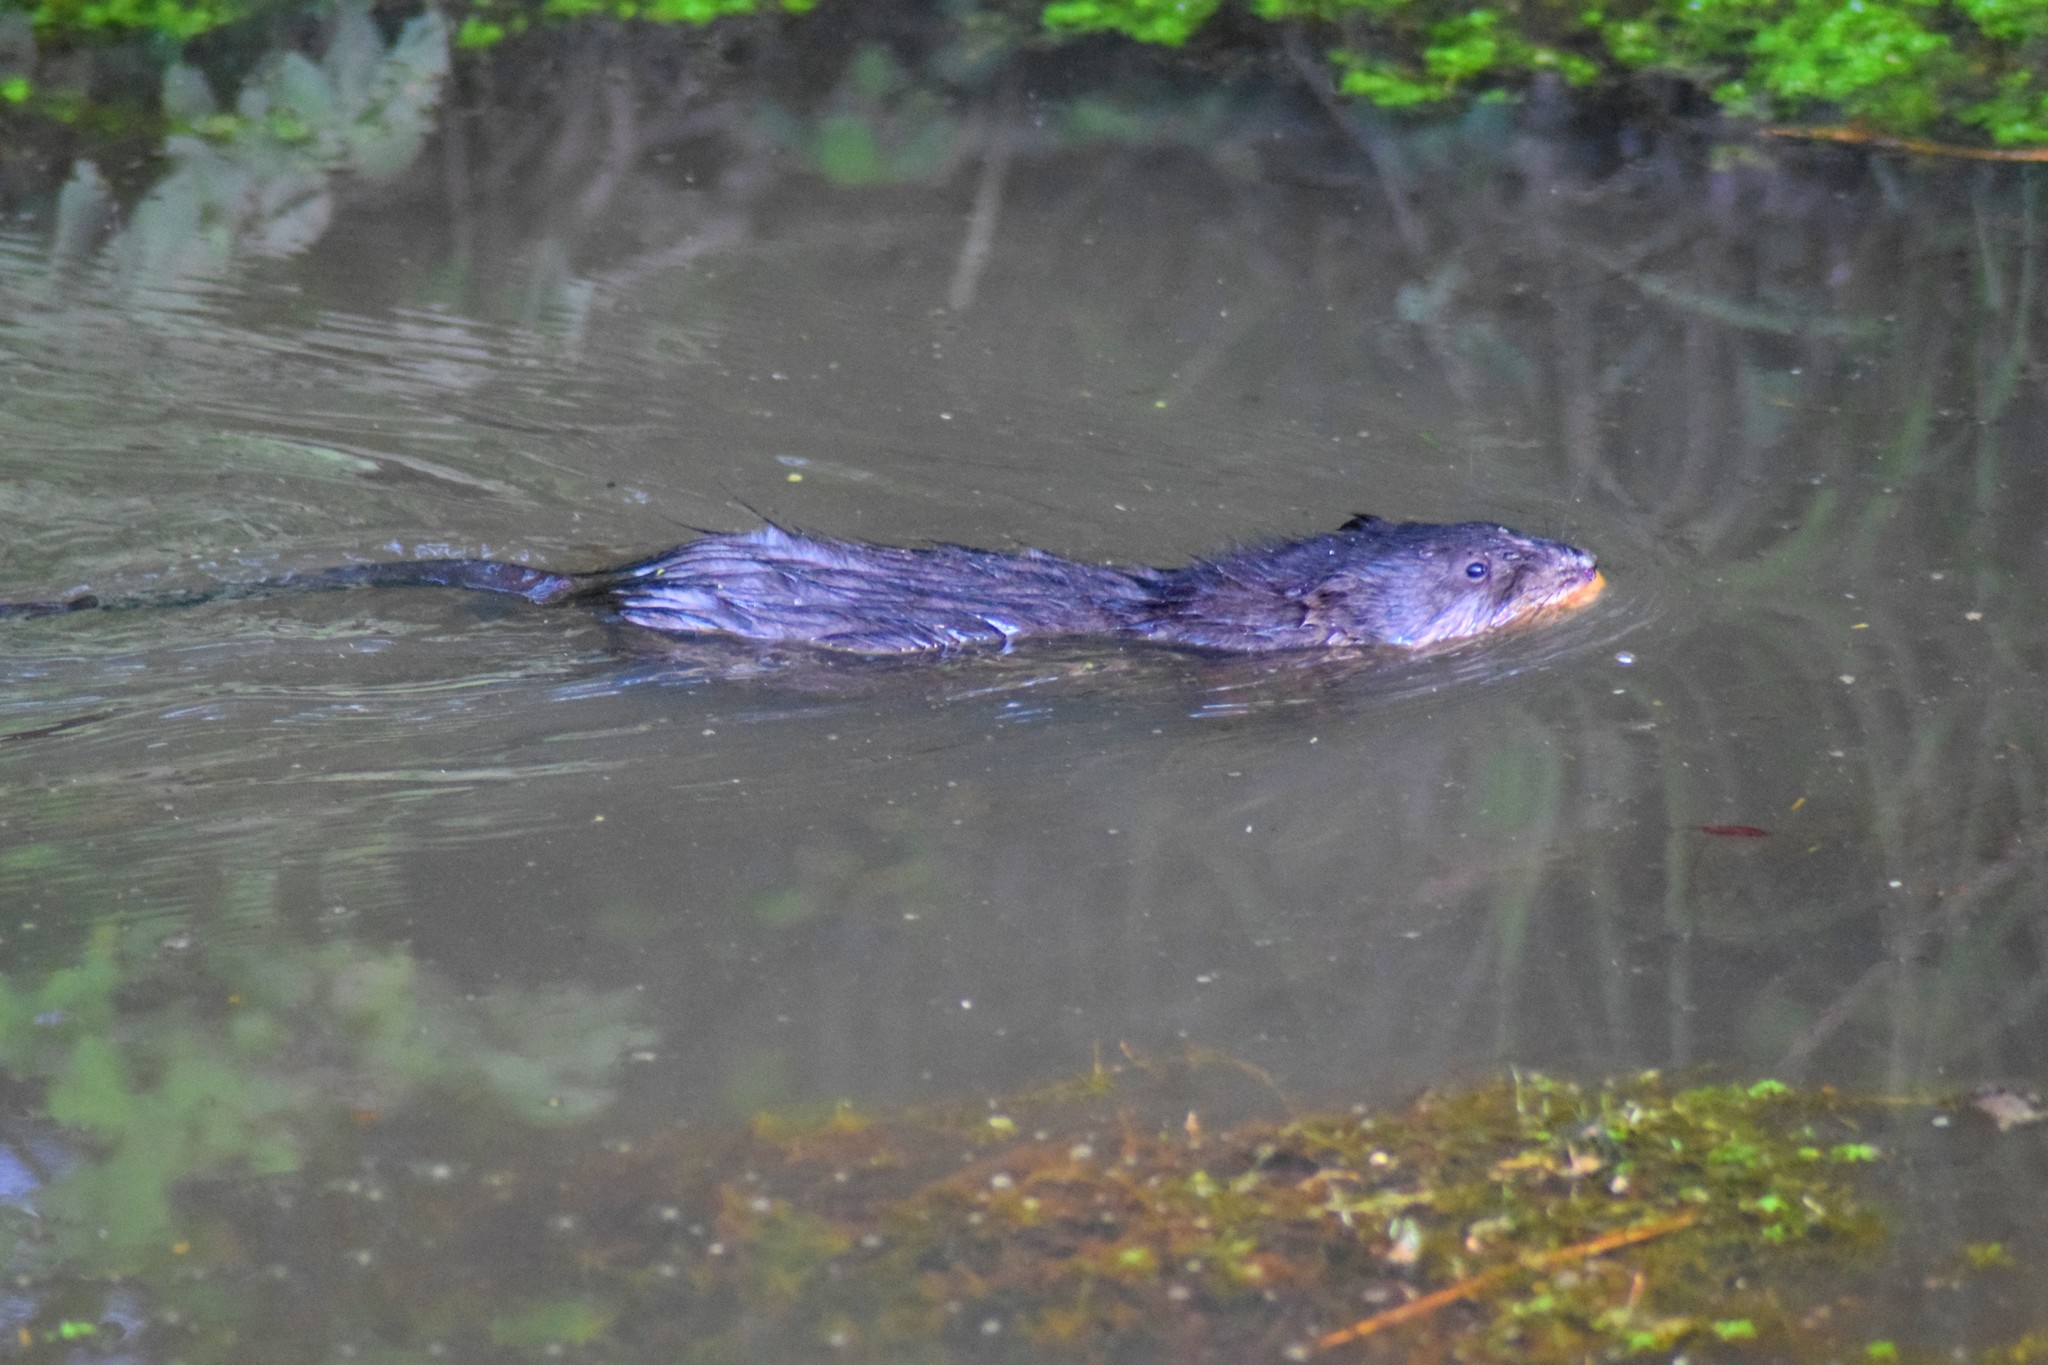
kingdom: Animalia
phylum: Chordata
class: Mammalia
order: Rodentia
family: Cricetidae
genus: Ondatra
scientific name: Ondatra zibethicus
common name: Muskrat
